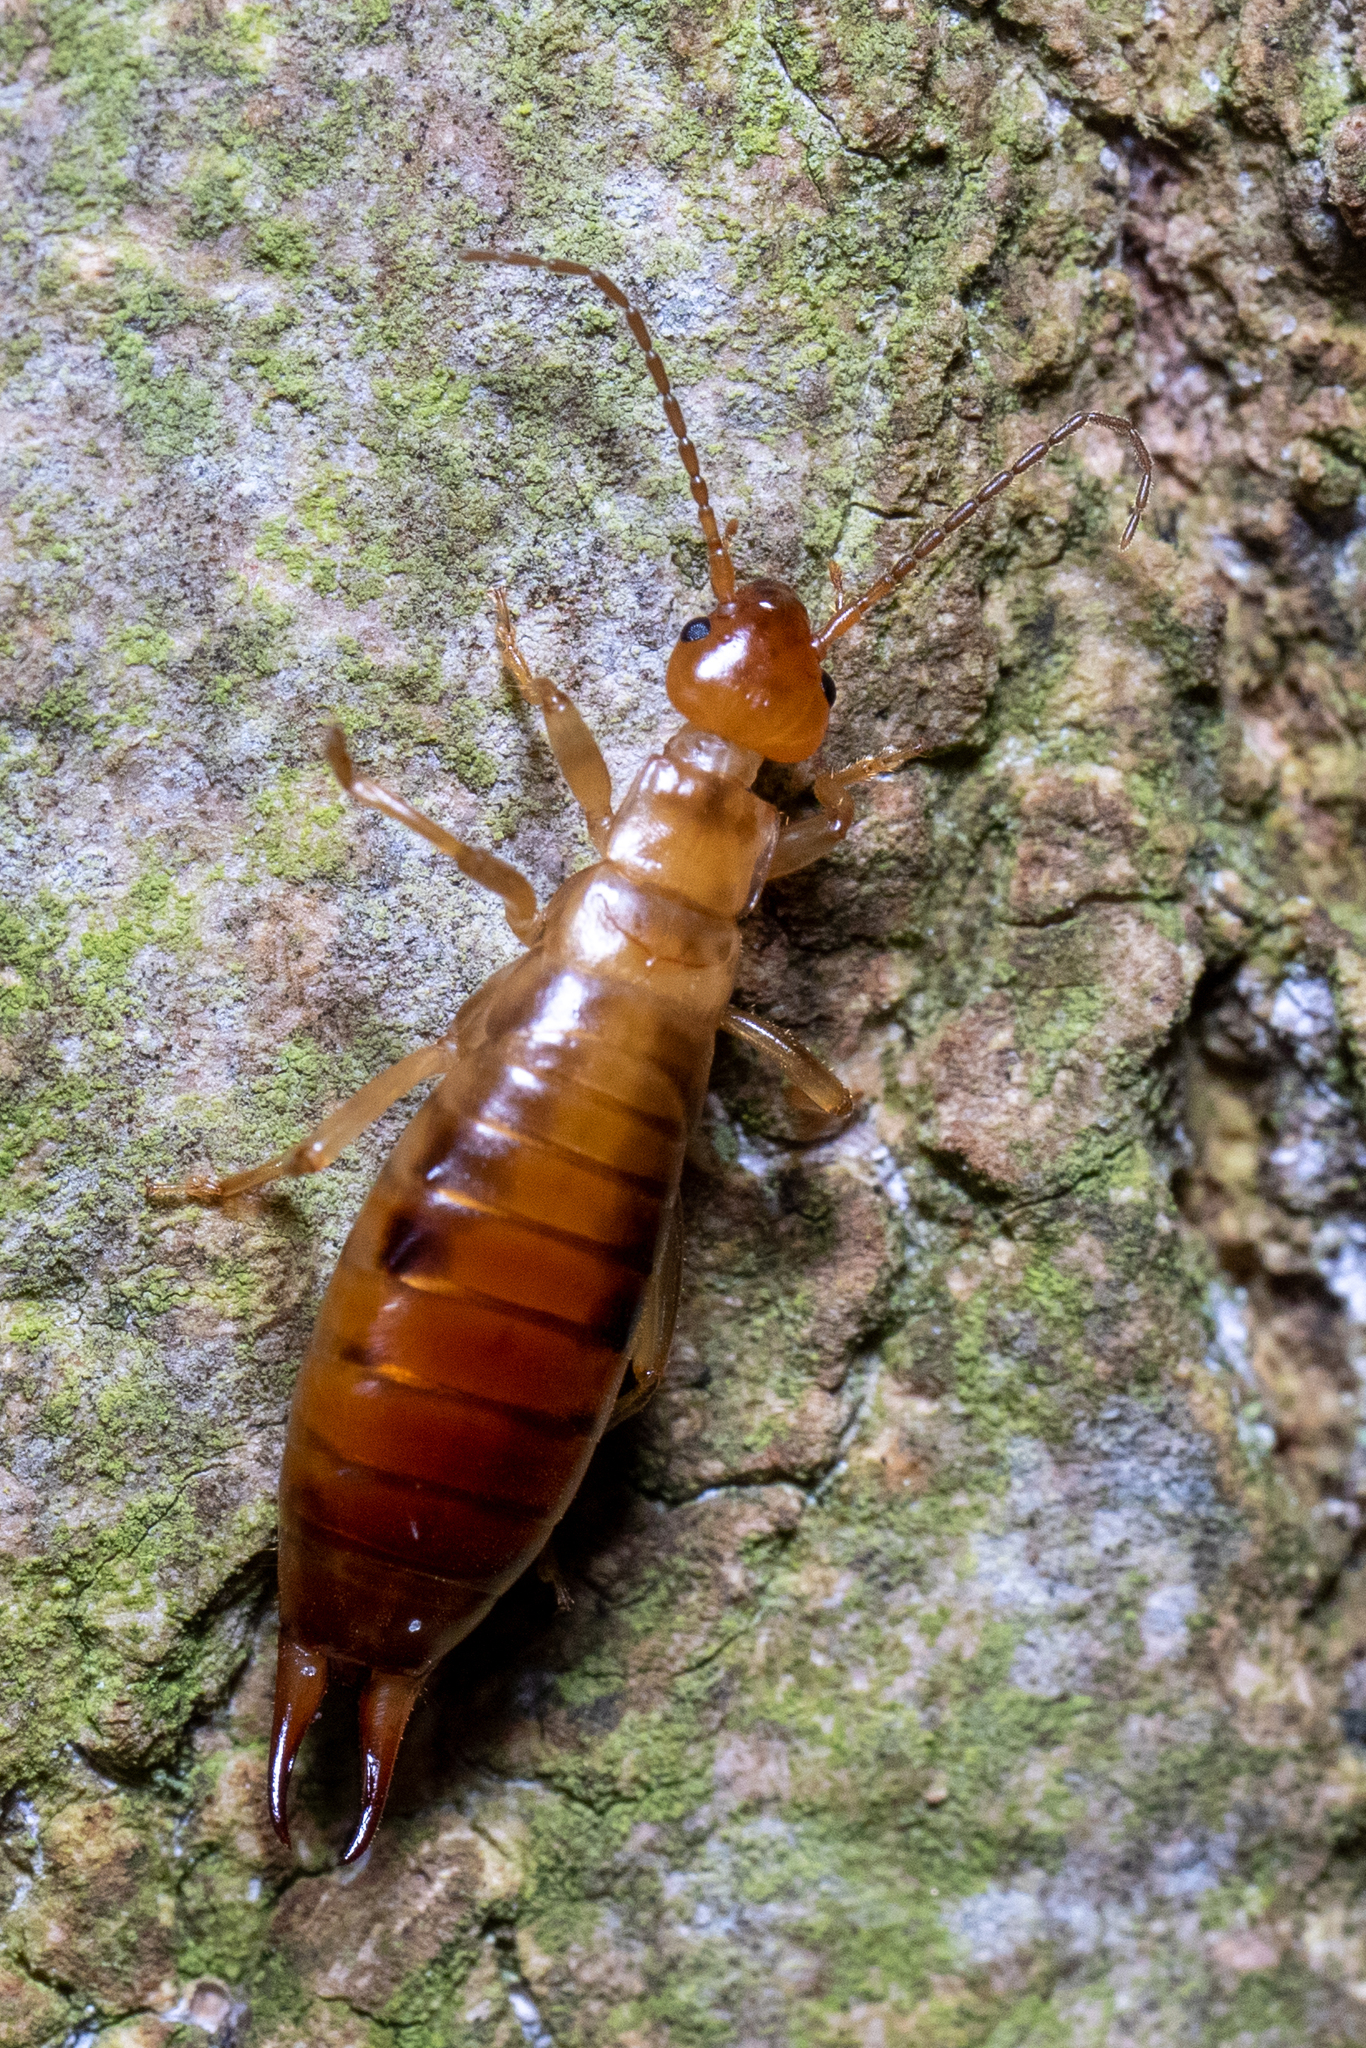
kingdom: Animalia
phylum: Arthropoda
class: Insecta
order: Dermaptera
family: Forficulidae
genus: Chelidurella
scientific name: Chelidurella acanthopygia
